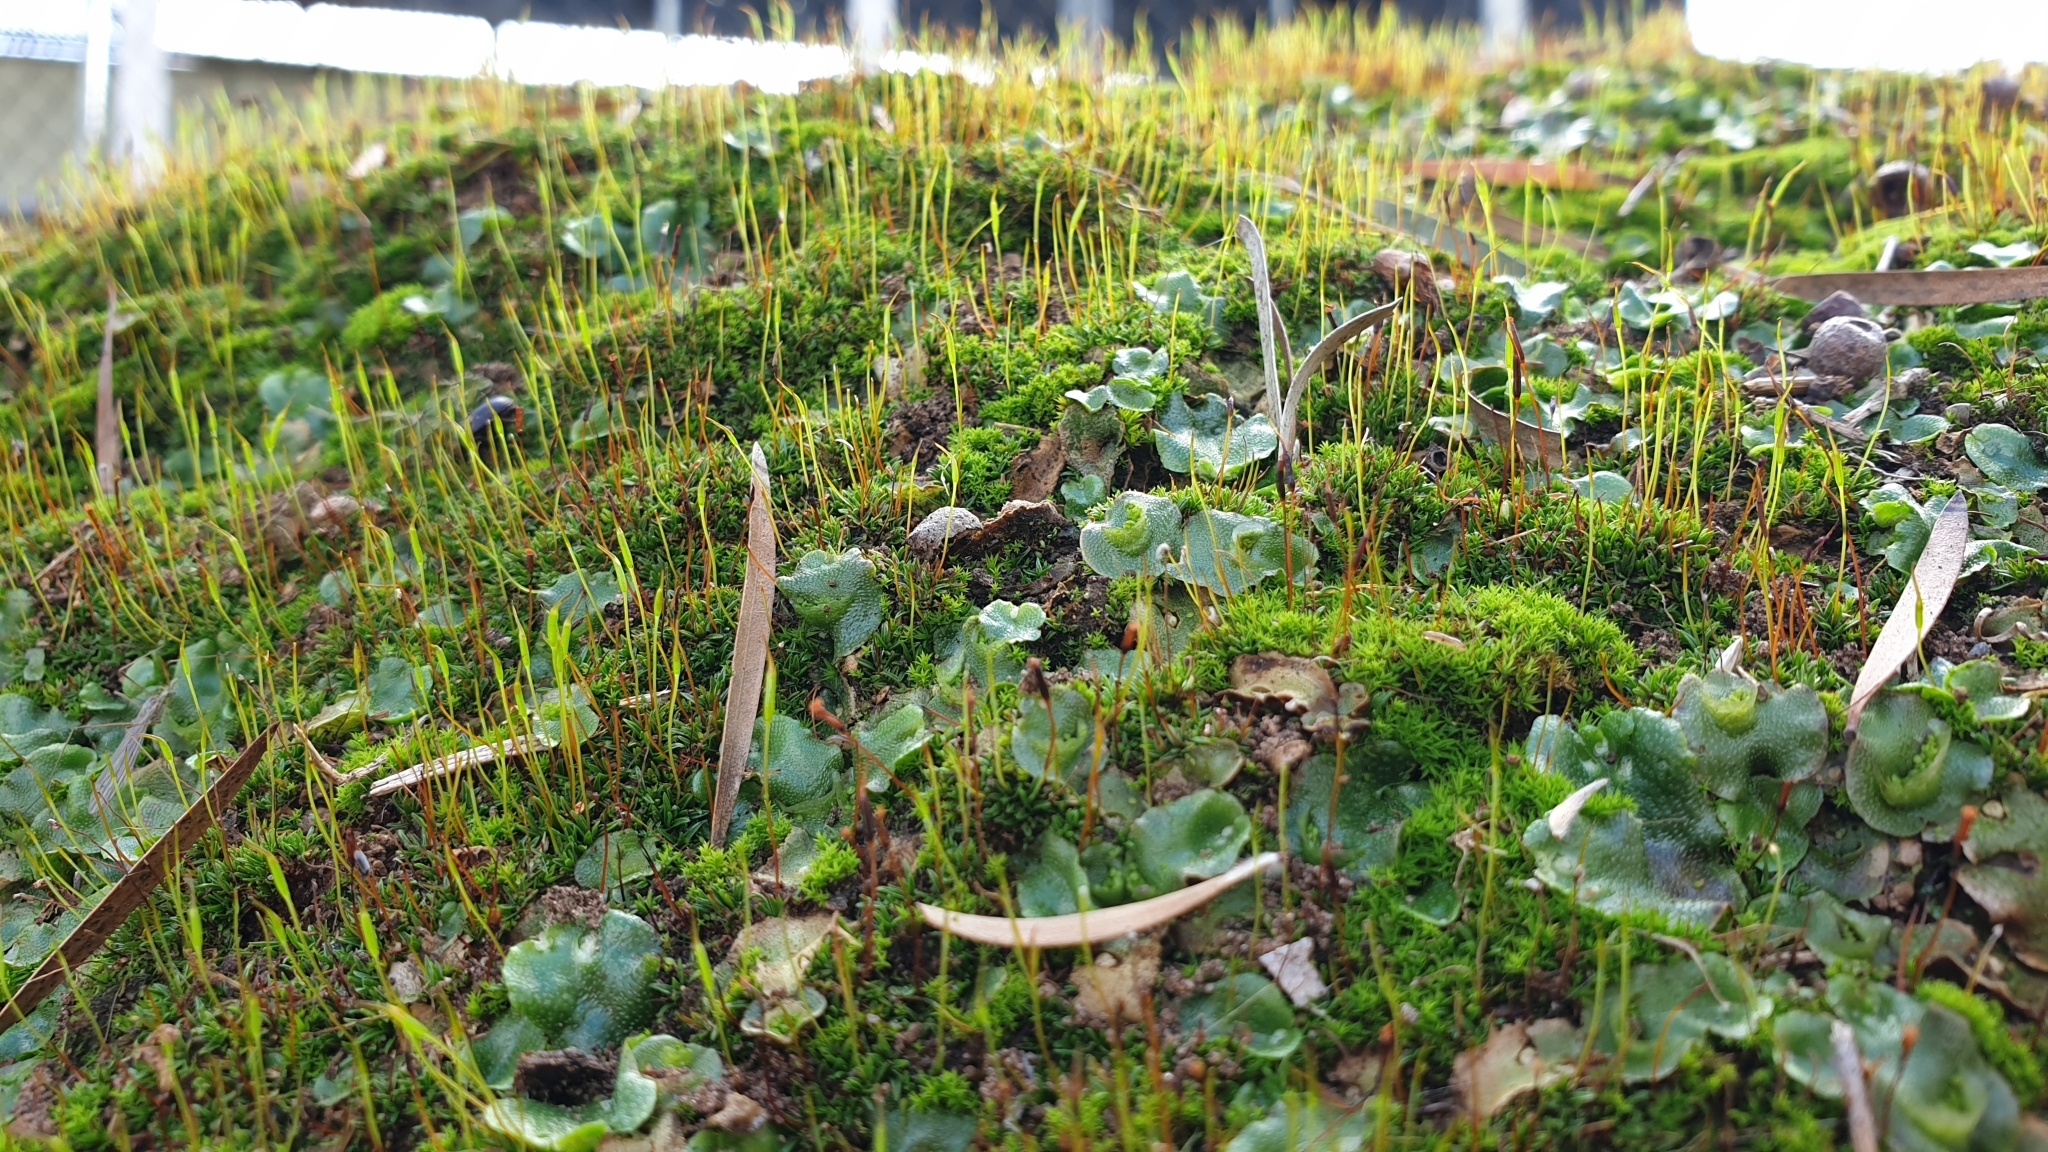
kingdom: Plantae
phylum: Marchantiophyta
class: Marchantiopsida
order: Lunulariales
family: Lunulariaceae
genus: Lunularia
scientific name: Lunularia cruciata
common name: Crescent-cup liverwort
